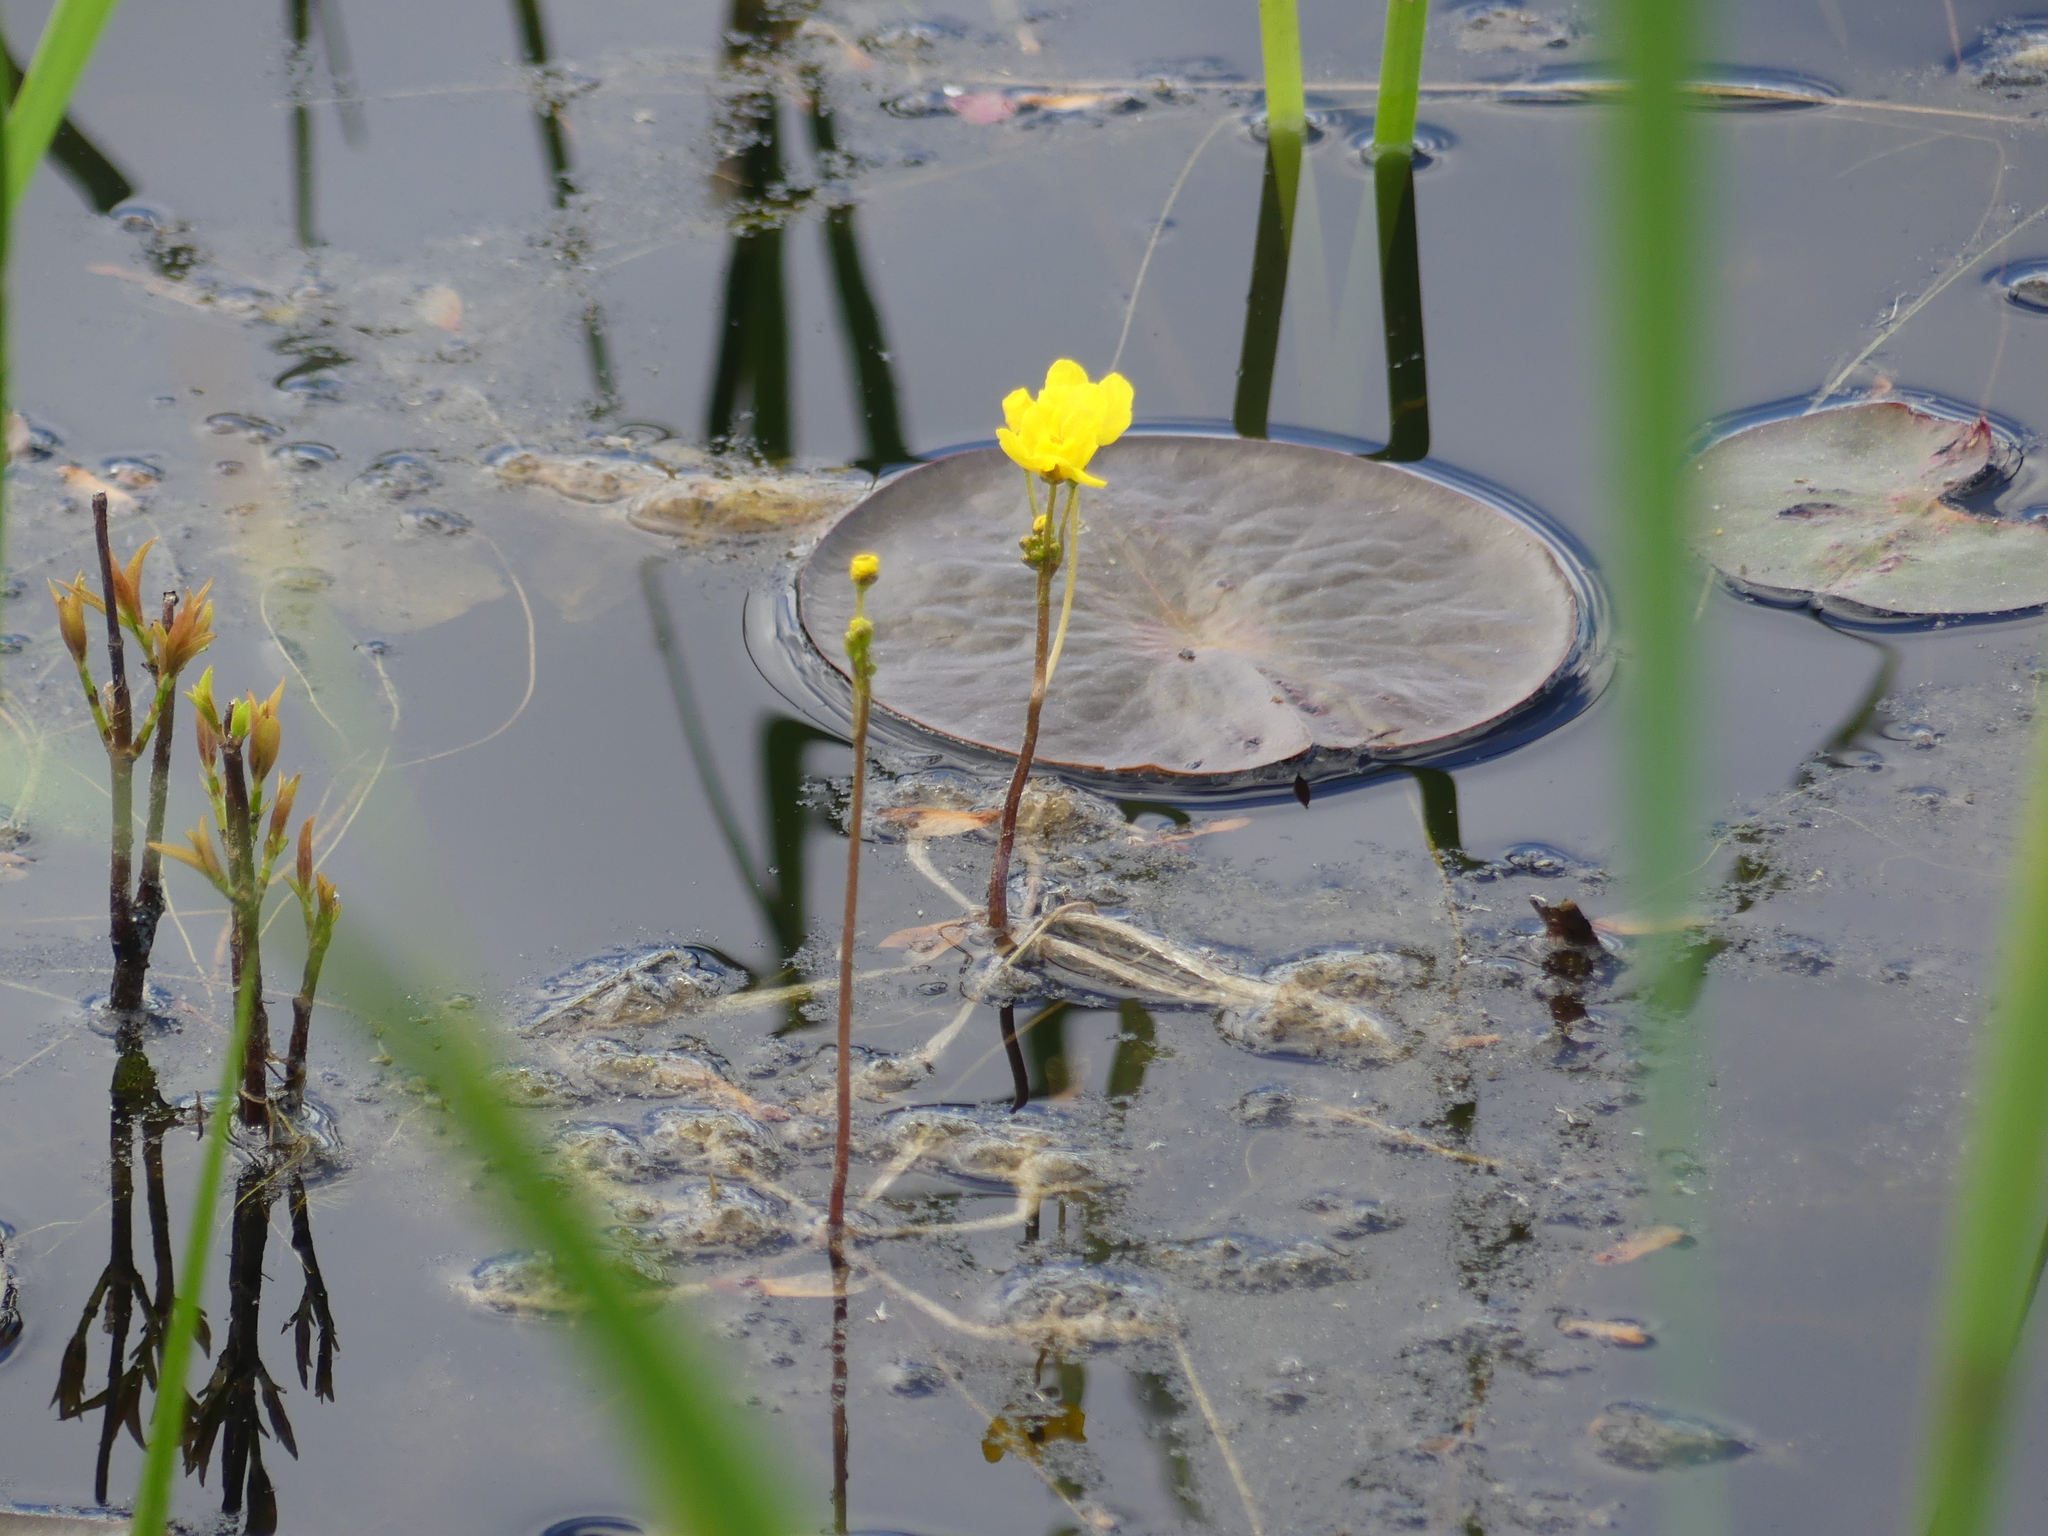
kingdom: Plantae
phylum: Tracheophyta
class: Magnoliopsida
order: Lamiales
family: Lentibulariaceae
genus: Utricularia
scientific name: Utricularia inflata
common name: Floating bladderwort
